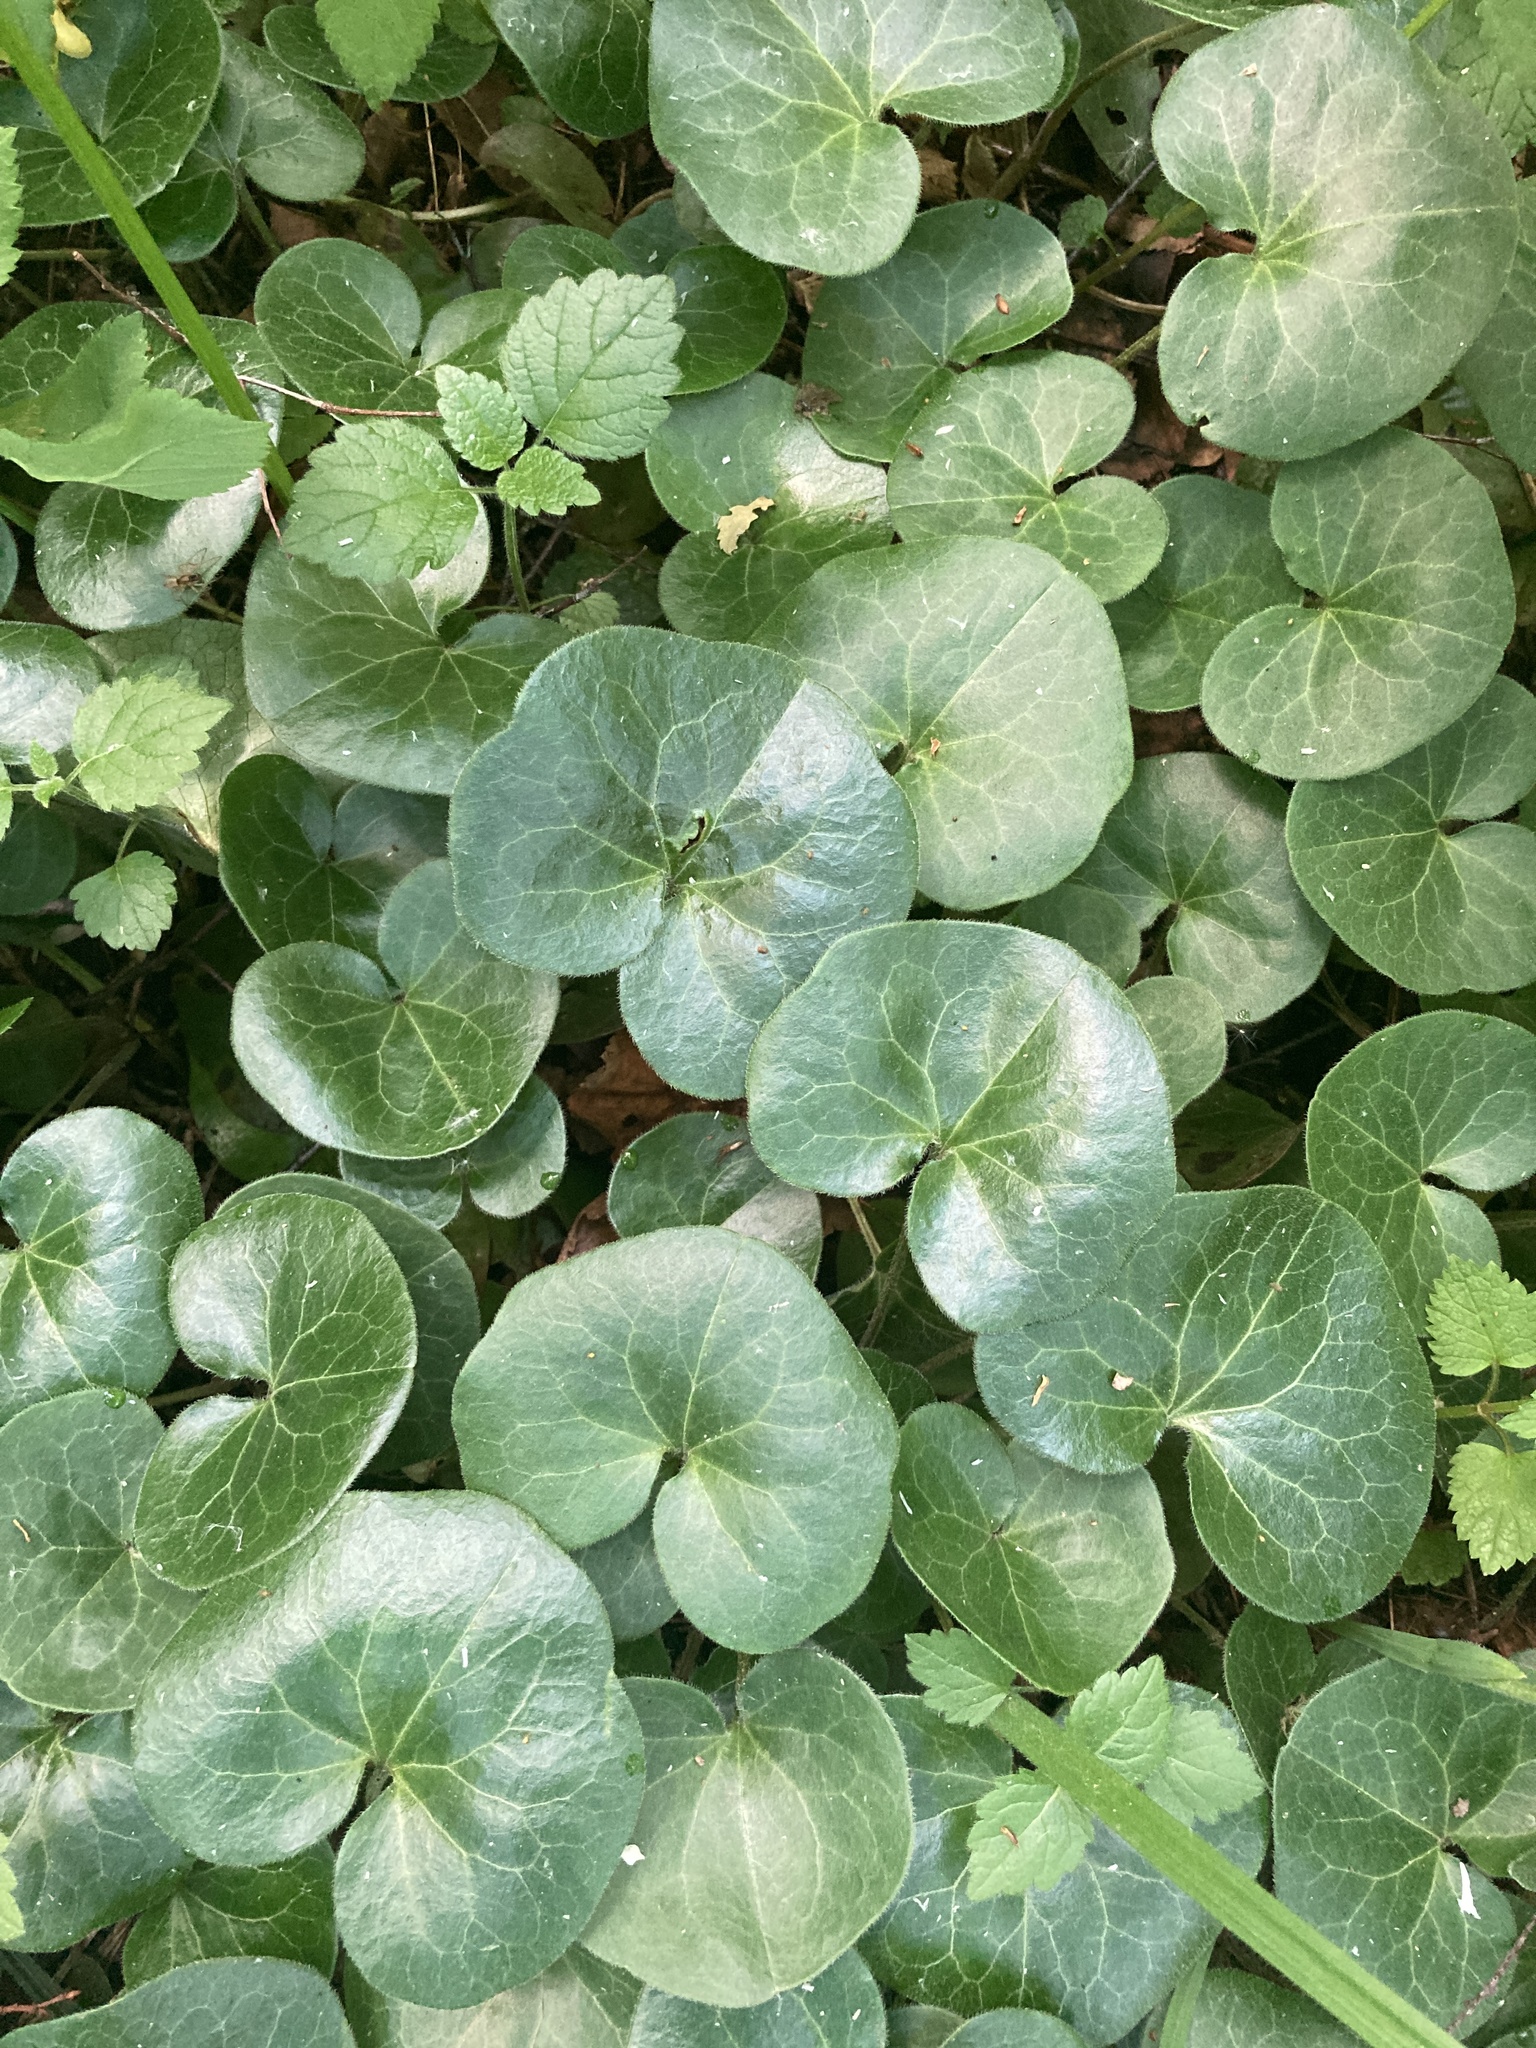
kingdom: Plantae
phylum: Tracheophyta
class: Magnoliopsida
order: Piperales
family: Aristolochiaceae
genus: Asarum
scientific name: Asarum europaeum
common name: Asarabacca
